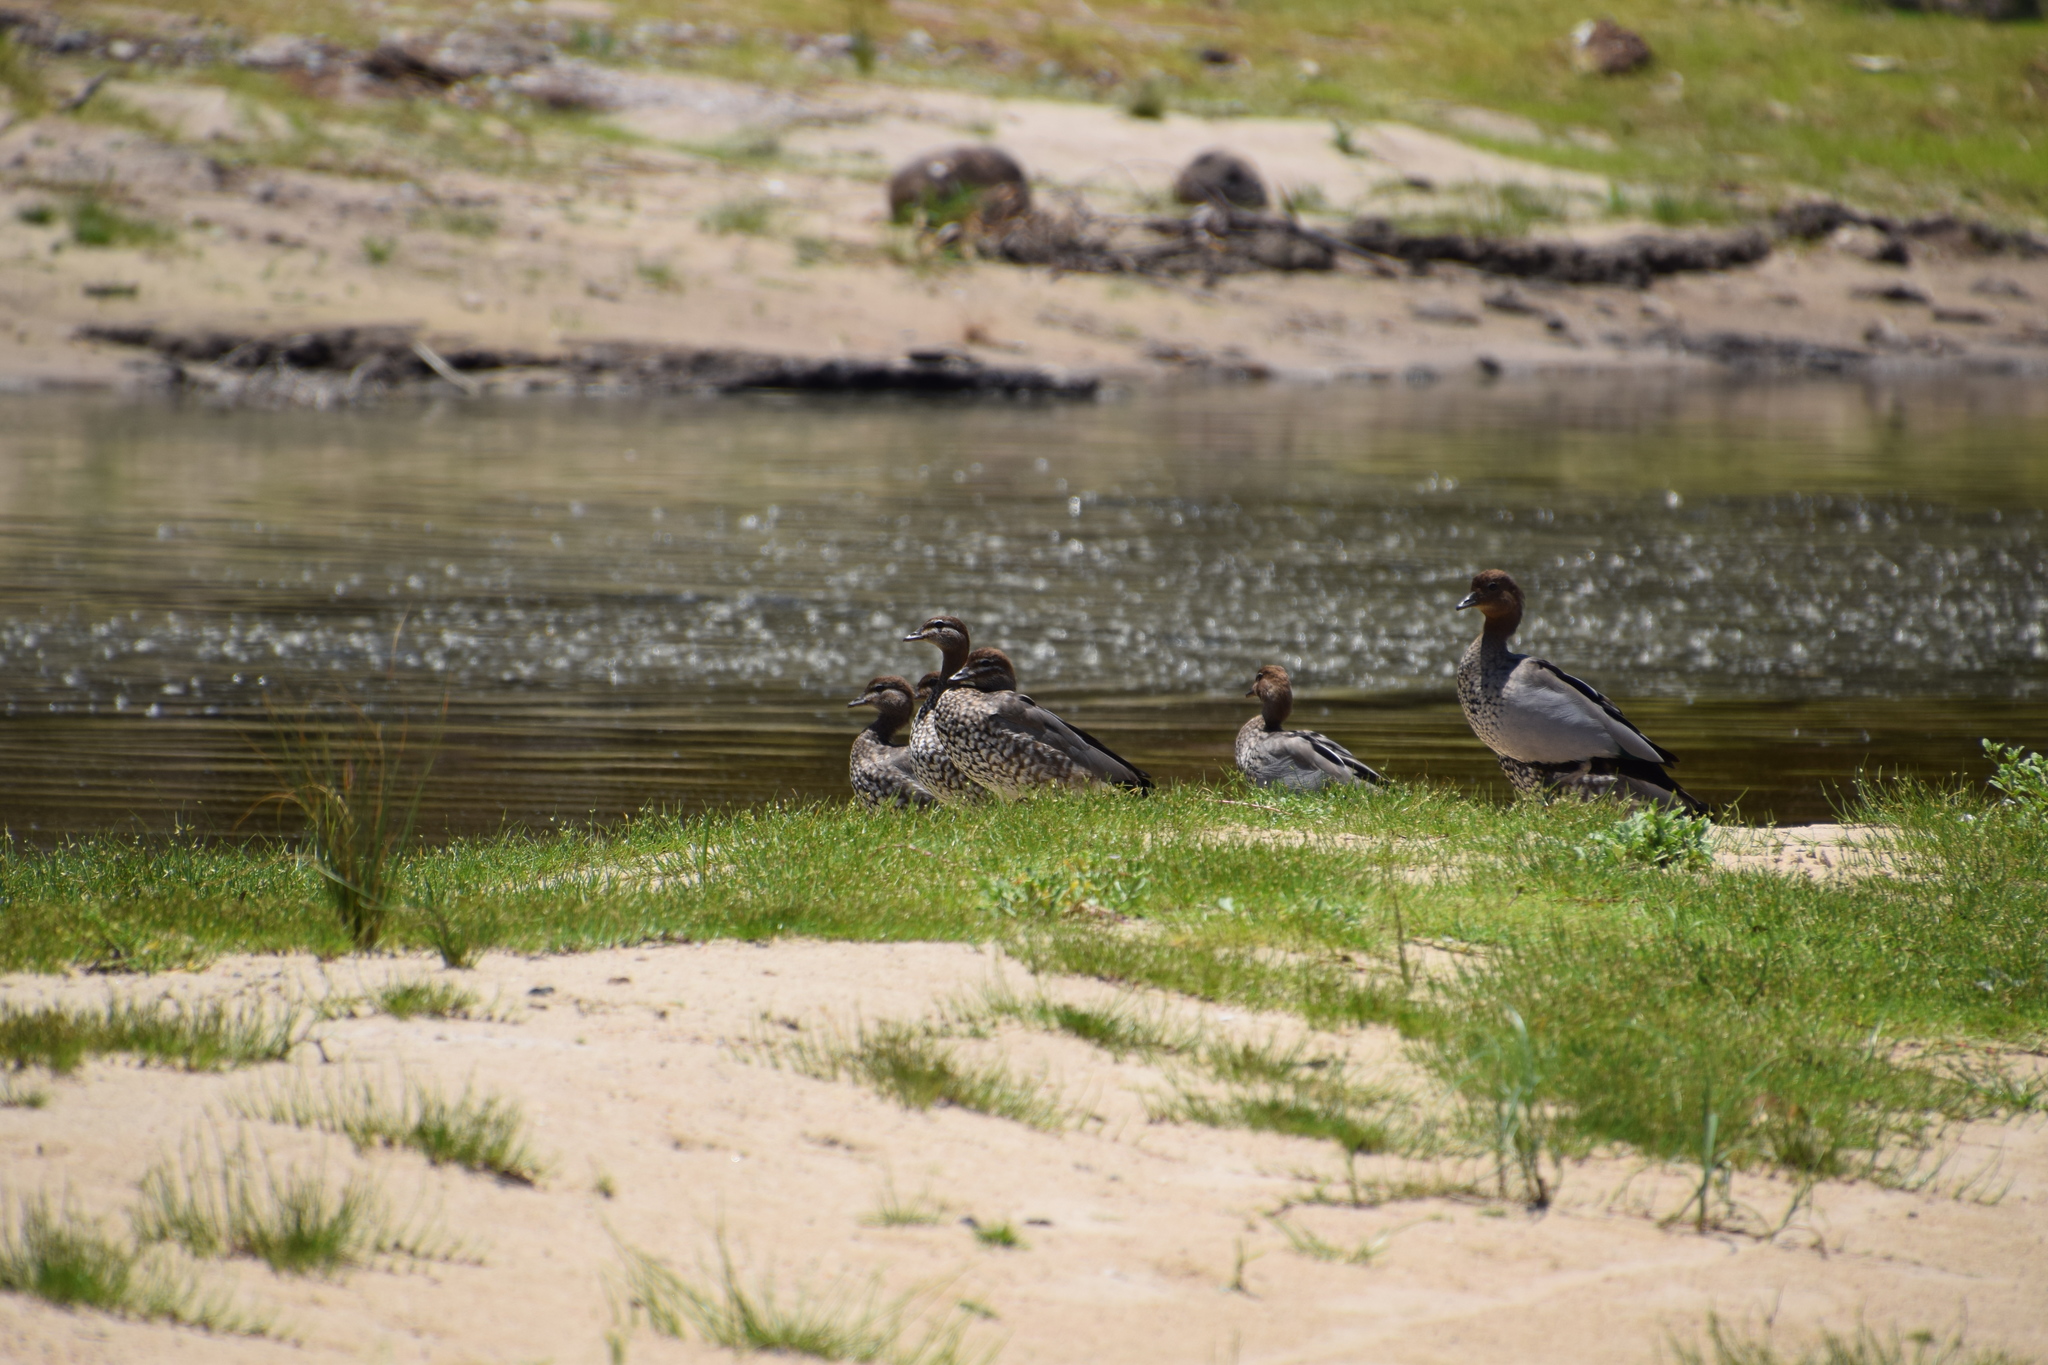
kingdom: Animalia
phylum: Chordata
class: Aves
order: Anseriformes
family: Anatidae
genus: Chenonetta
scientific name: Chenonetta jubata
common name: Maned duck
